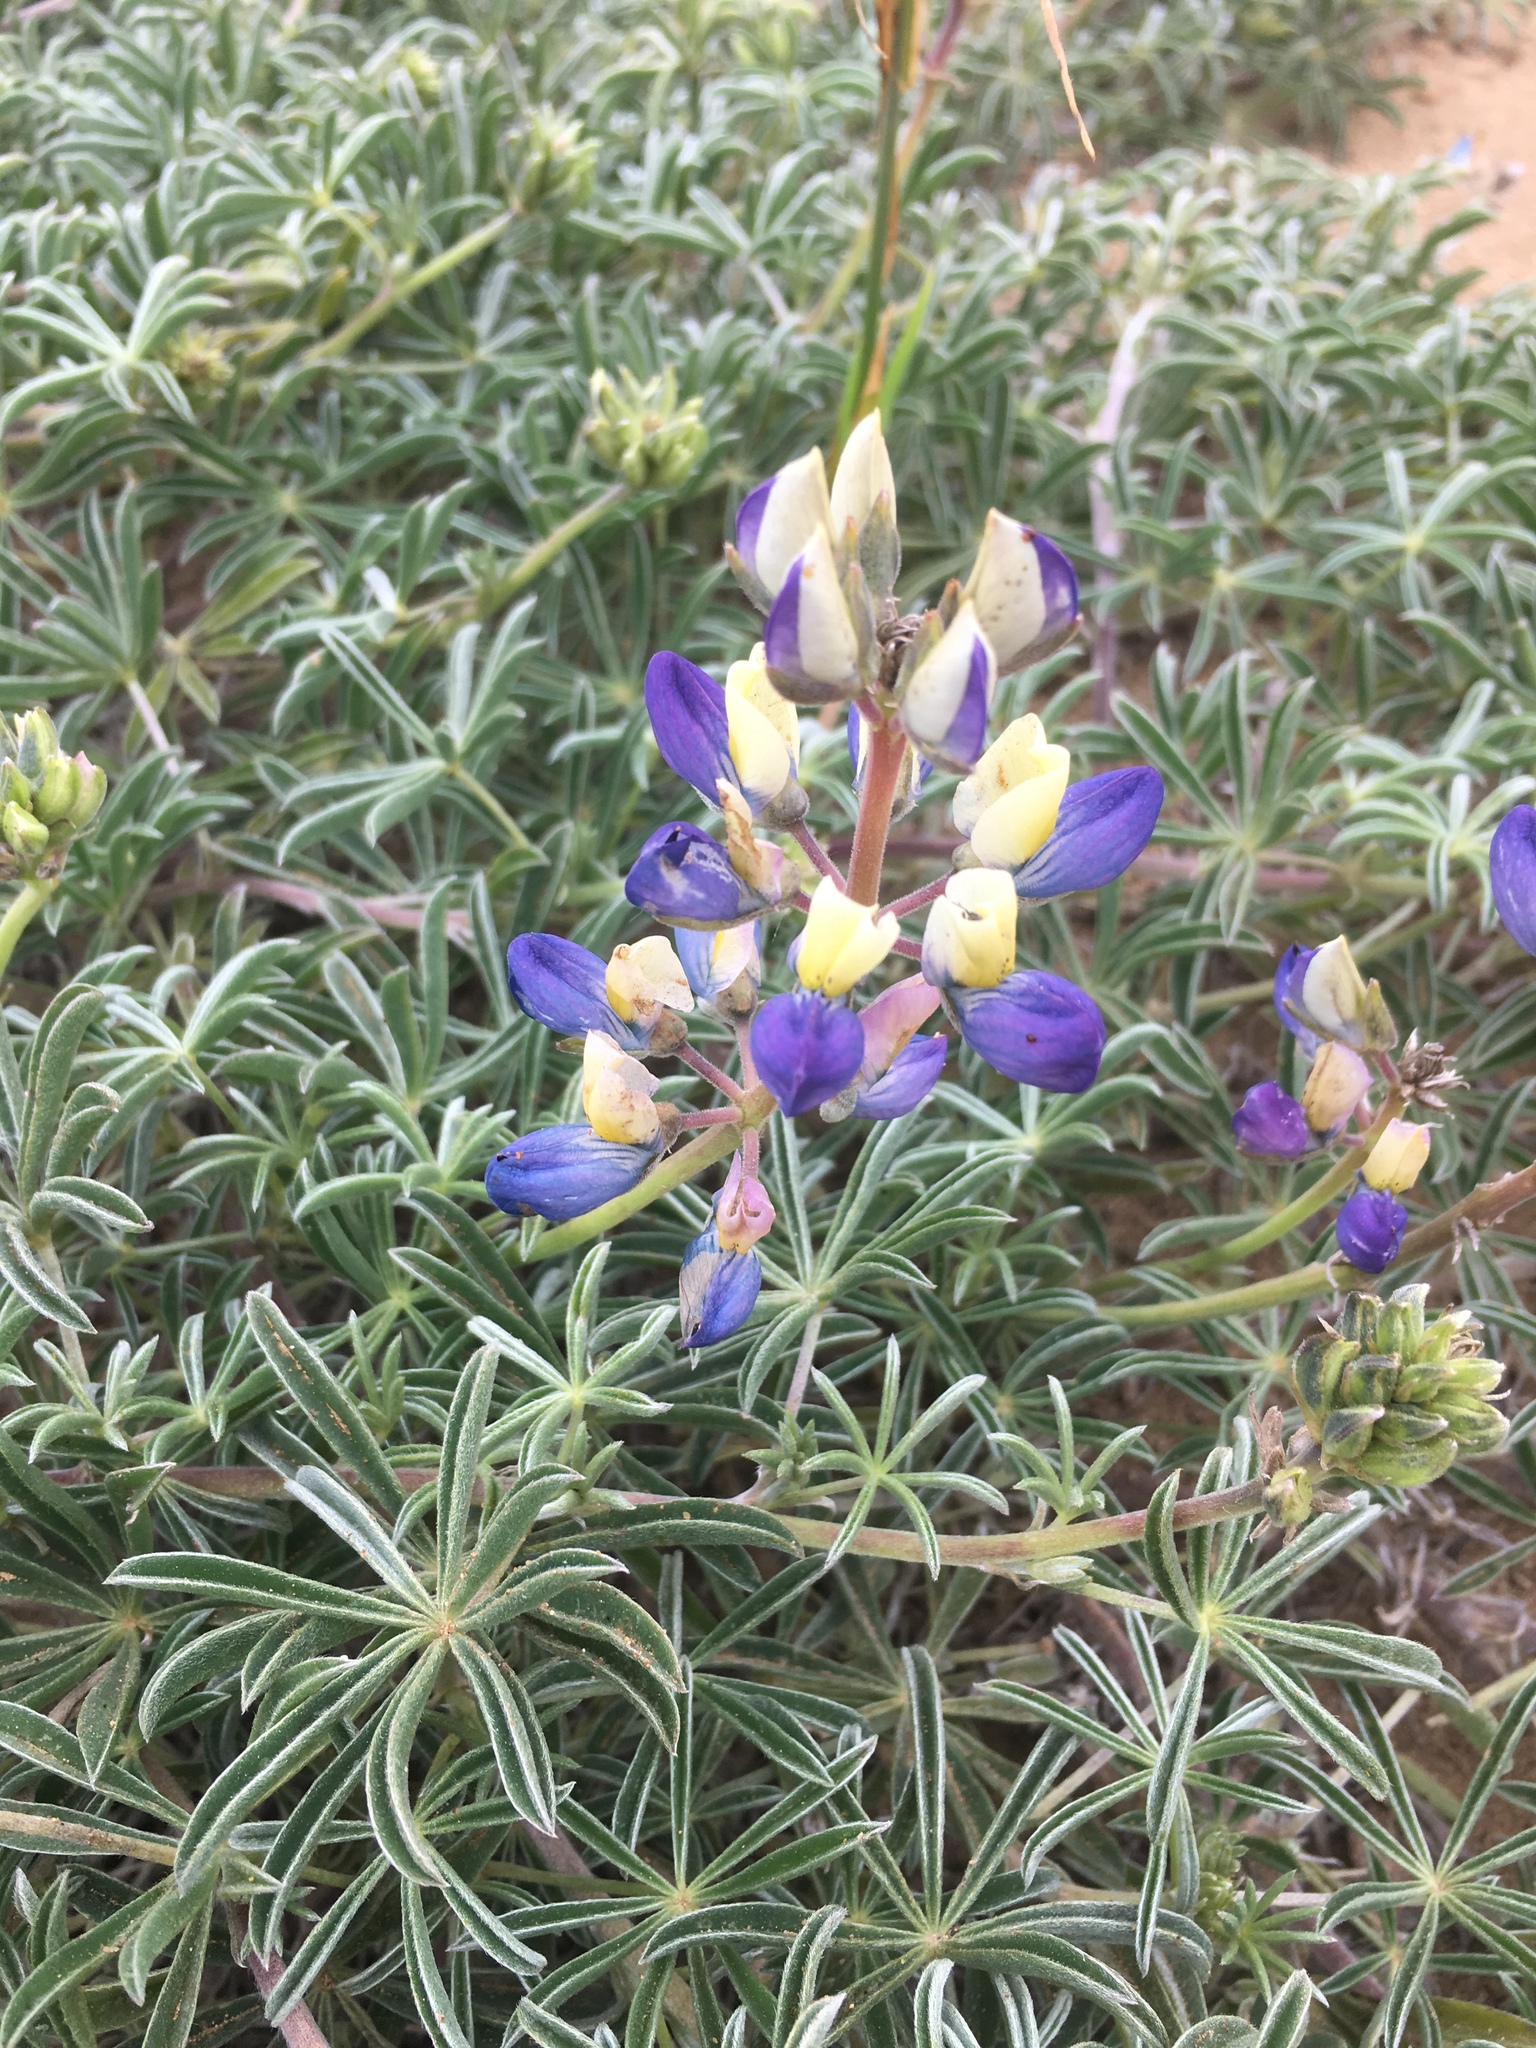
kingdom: Plantae
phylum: Tracheophyta
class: Magnoliopsida
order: Fabales
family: Fabaceae
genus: Lupinus
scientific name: Lupinus variicolor
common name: Lindley's varied lupine
